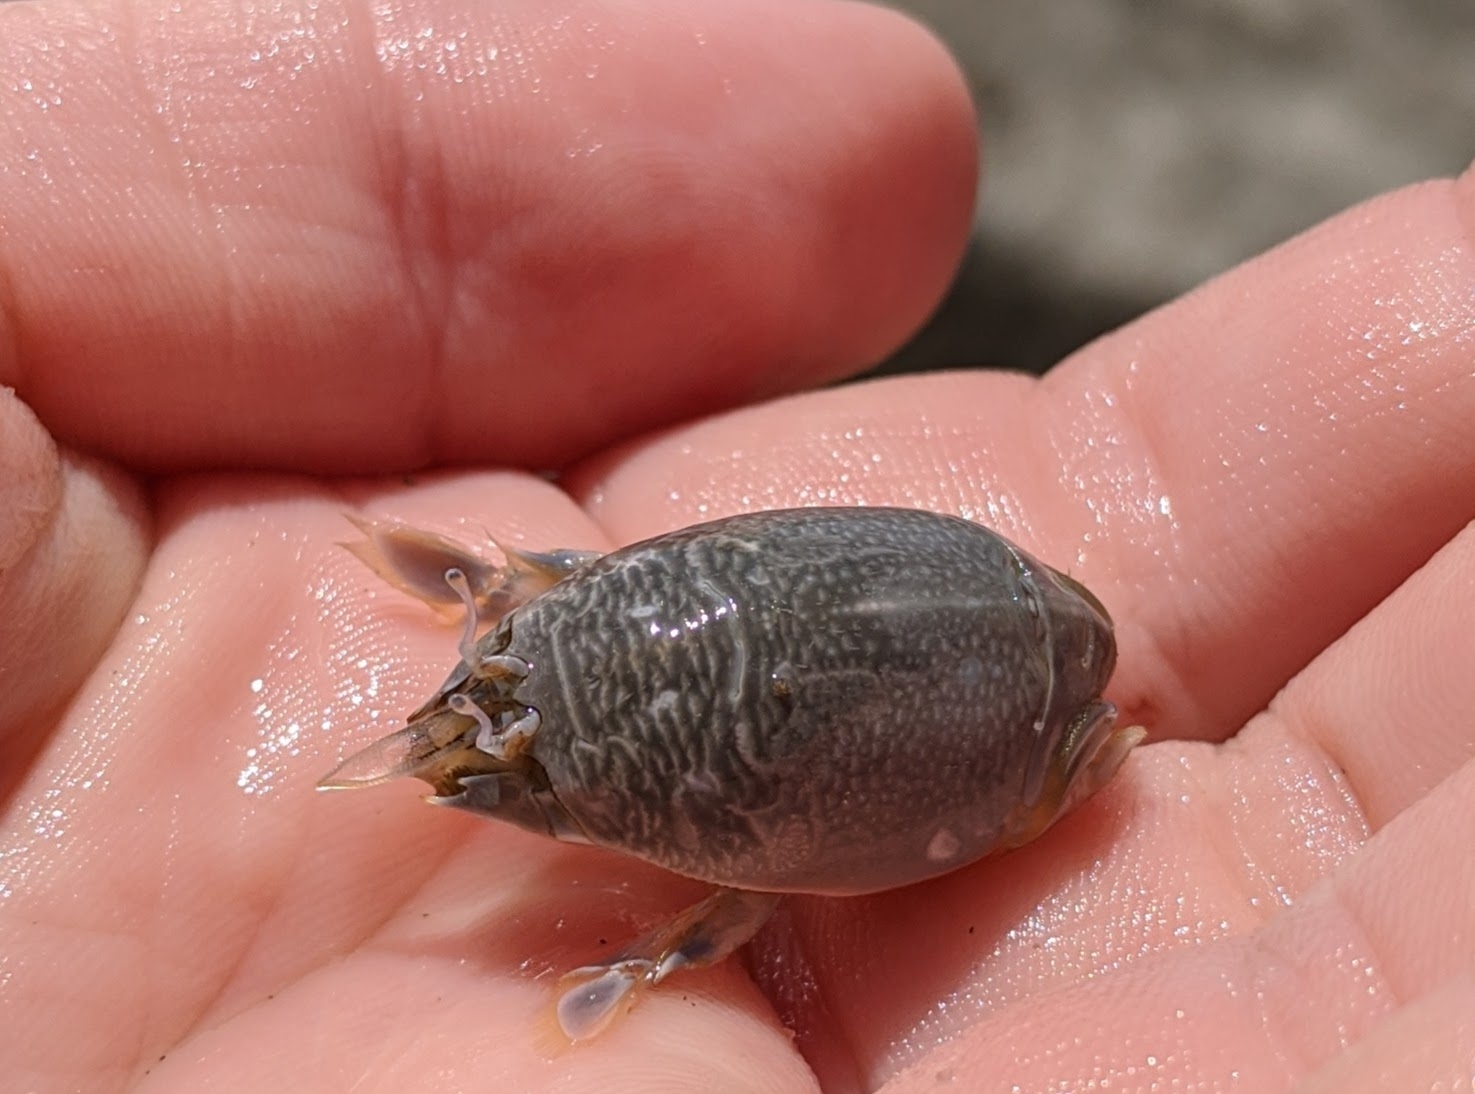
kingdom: Animalia
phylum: Arthropoda
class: Malacostraca
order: Decapoda
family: Hippidae
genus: Emerita
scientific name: Emerita analoga
